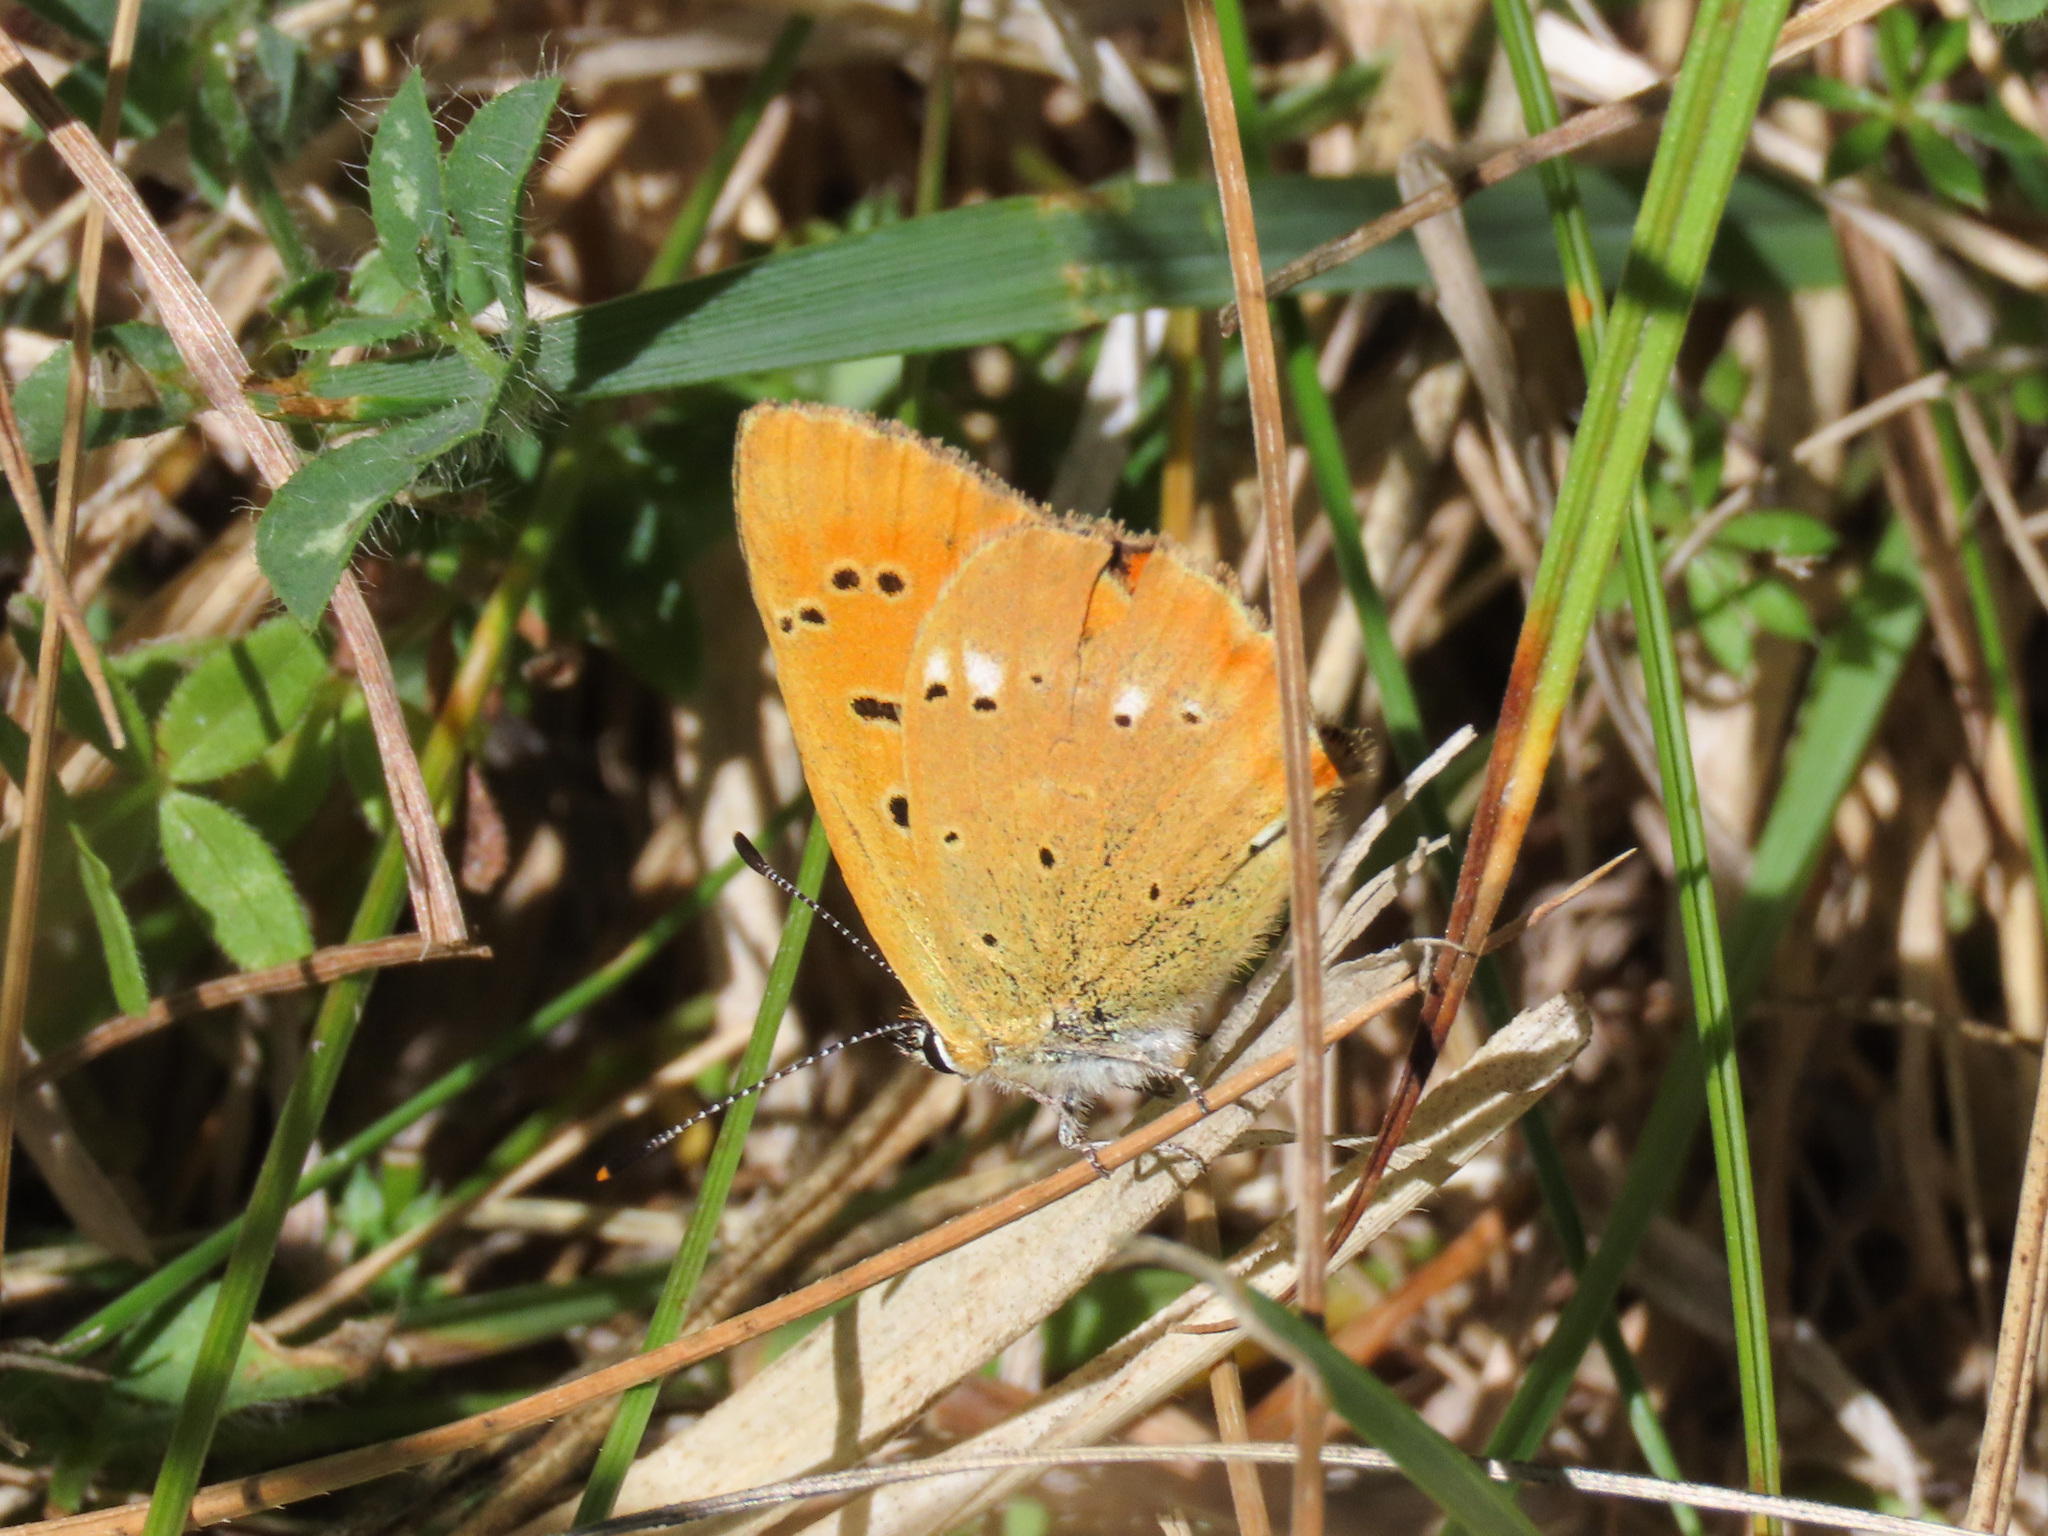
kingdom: Animalia
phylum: Arthropoda
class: Insecta
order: Lepidoptera
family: Lycaenidae
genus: Lycaena
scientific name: Lycaena virgaureae
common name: Scarce copper
